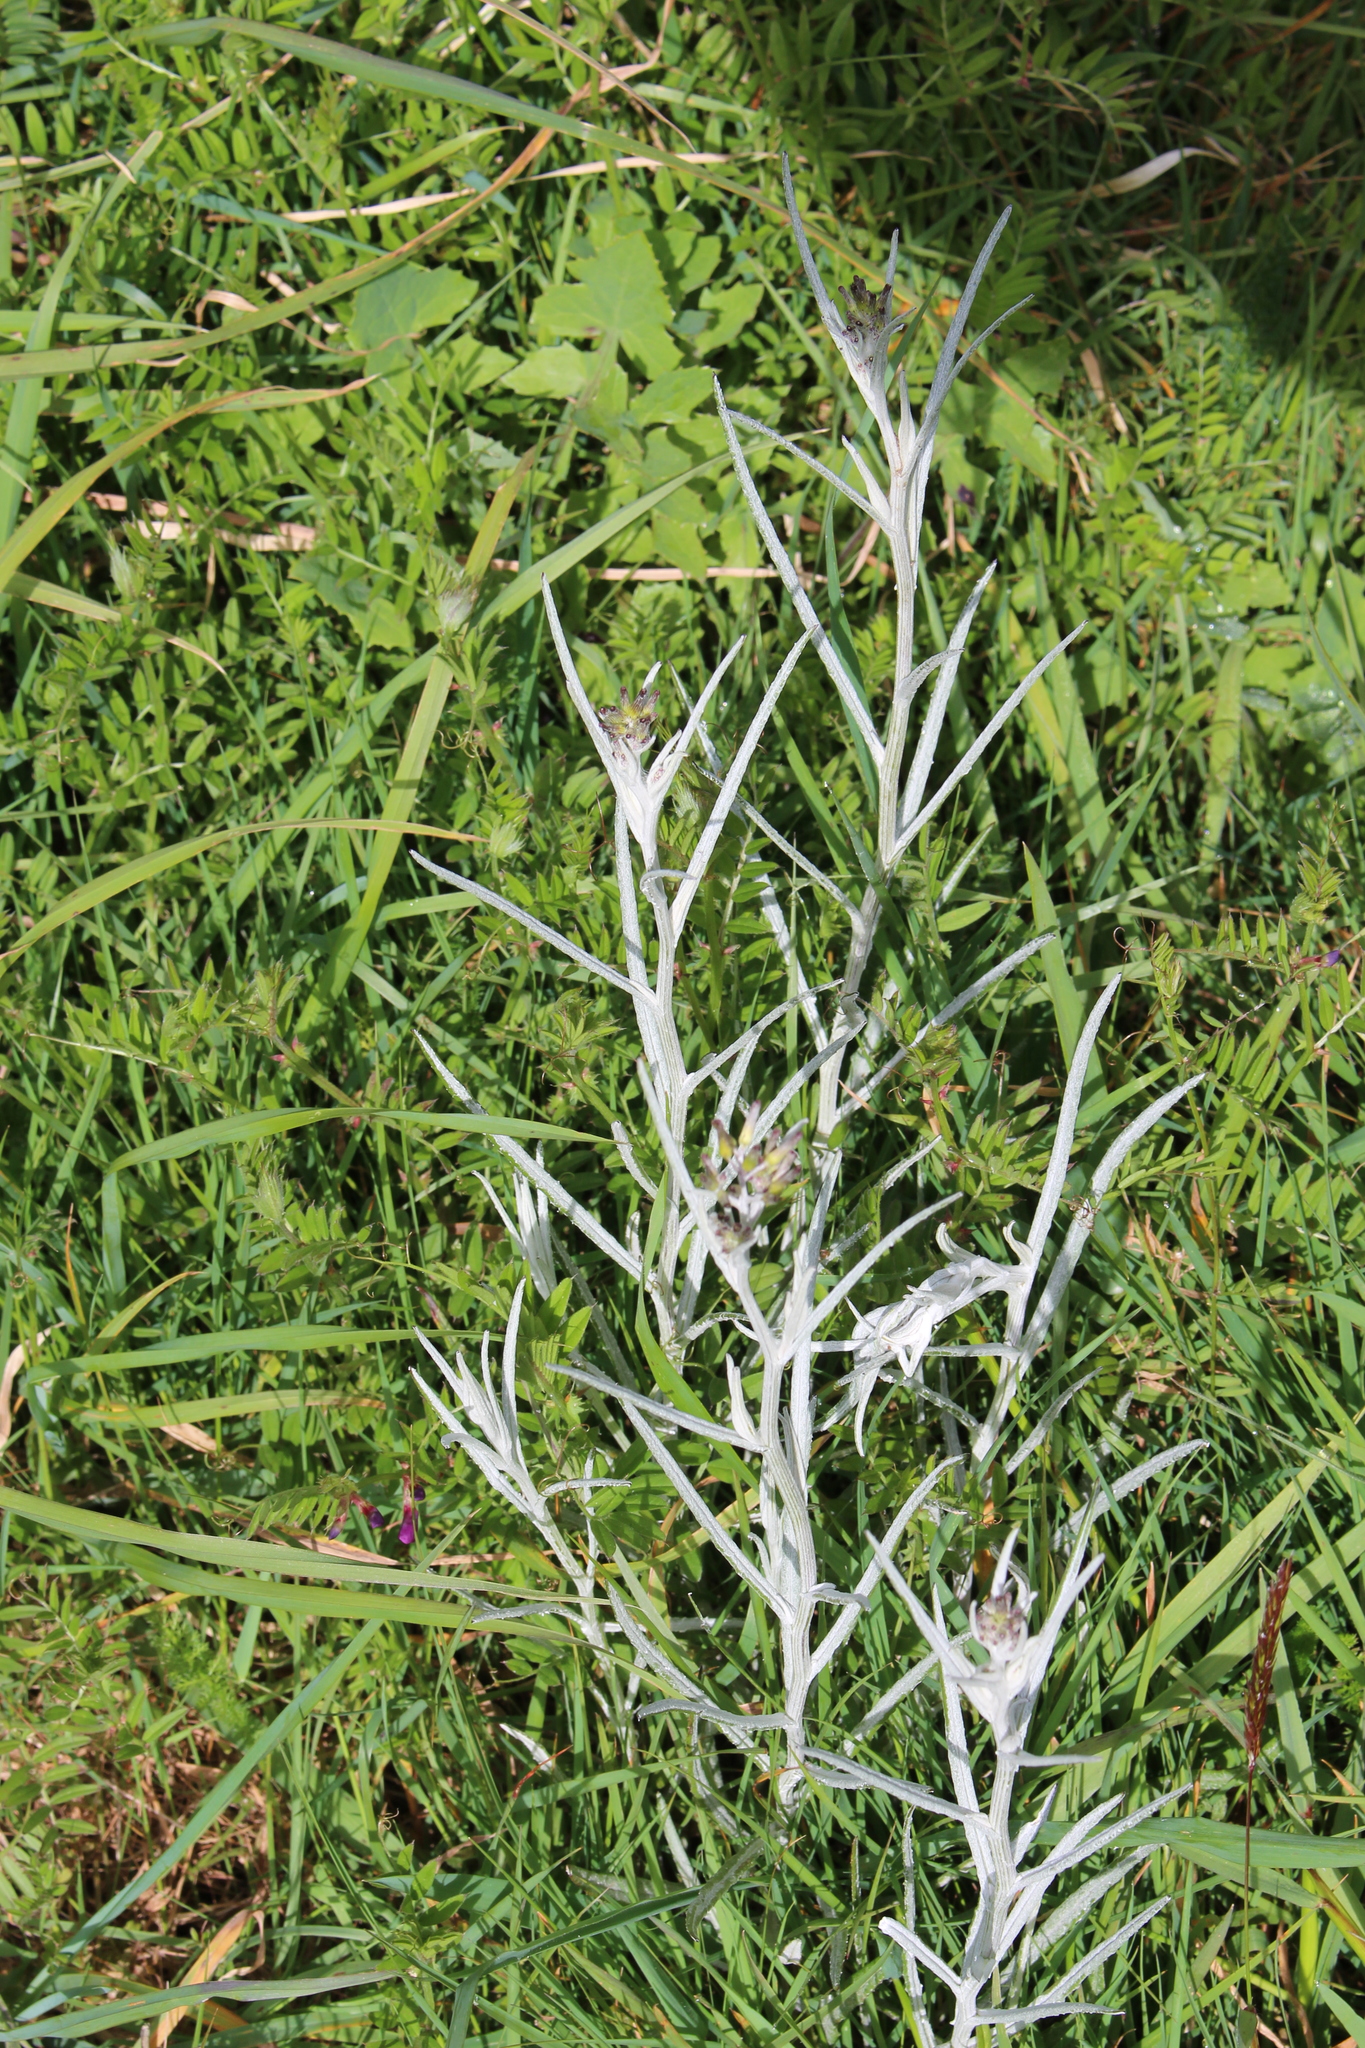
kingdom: Plantae
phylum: Tracheophyta
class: Magnoliopsida
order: Asterales
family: Asteraceae
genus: Senecio
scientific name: Senecio quadridentatus
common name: Cotton fireweed
